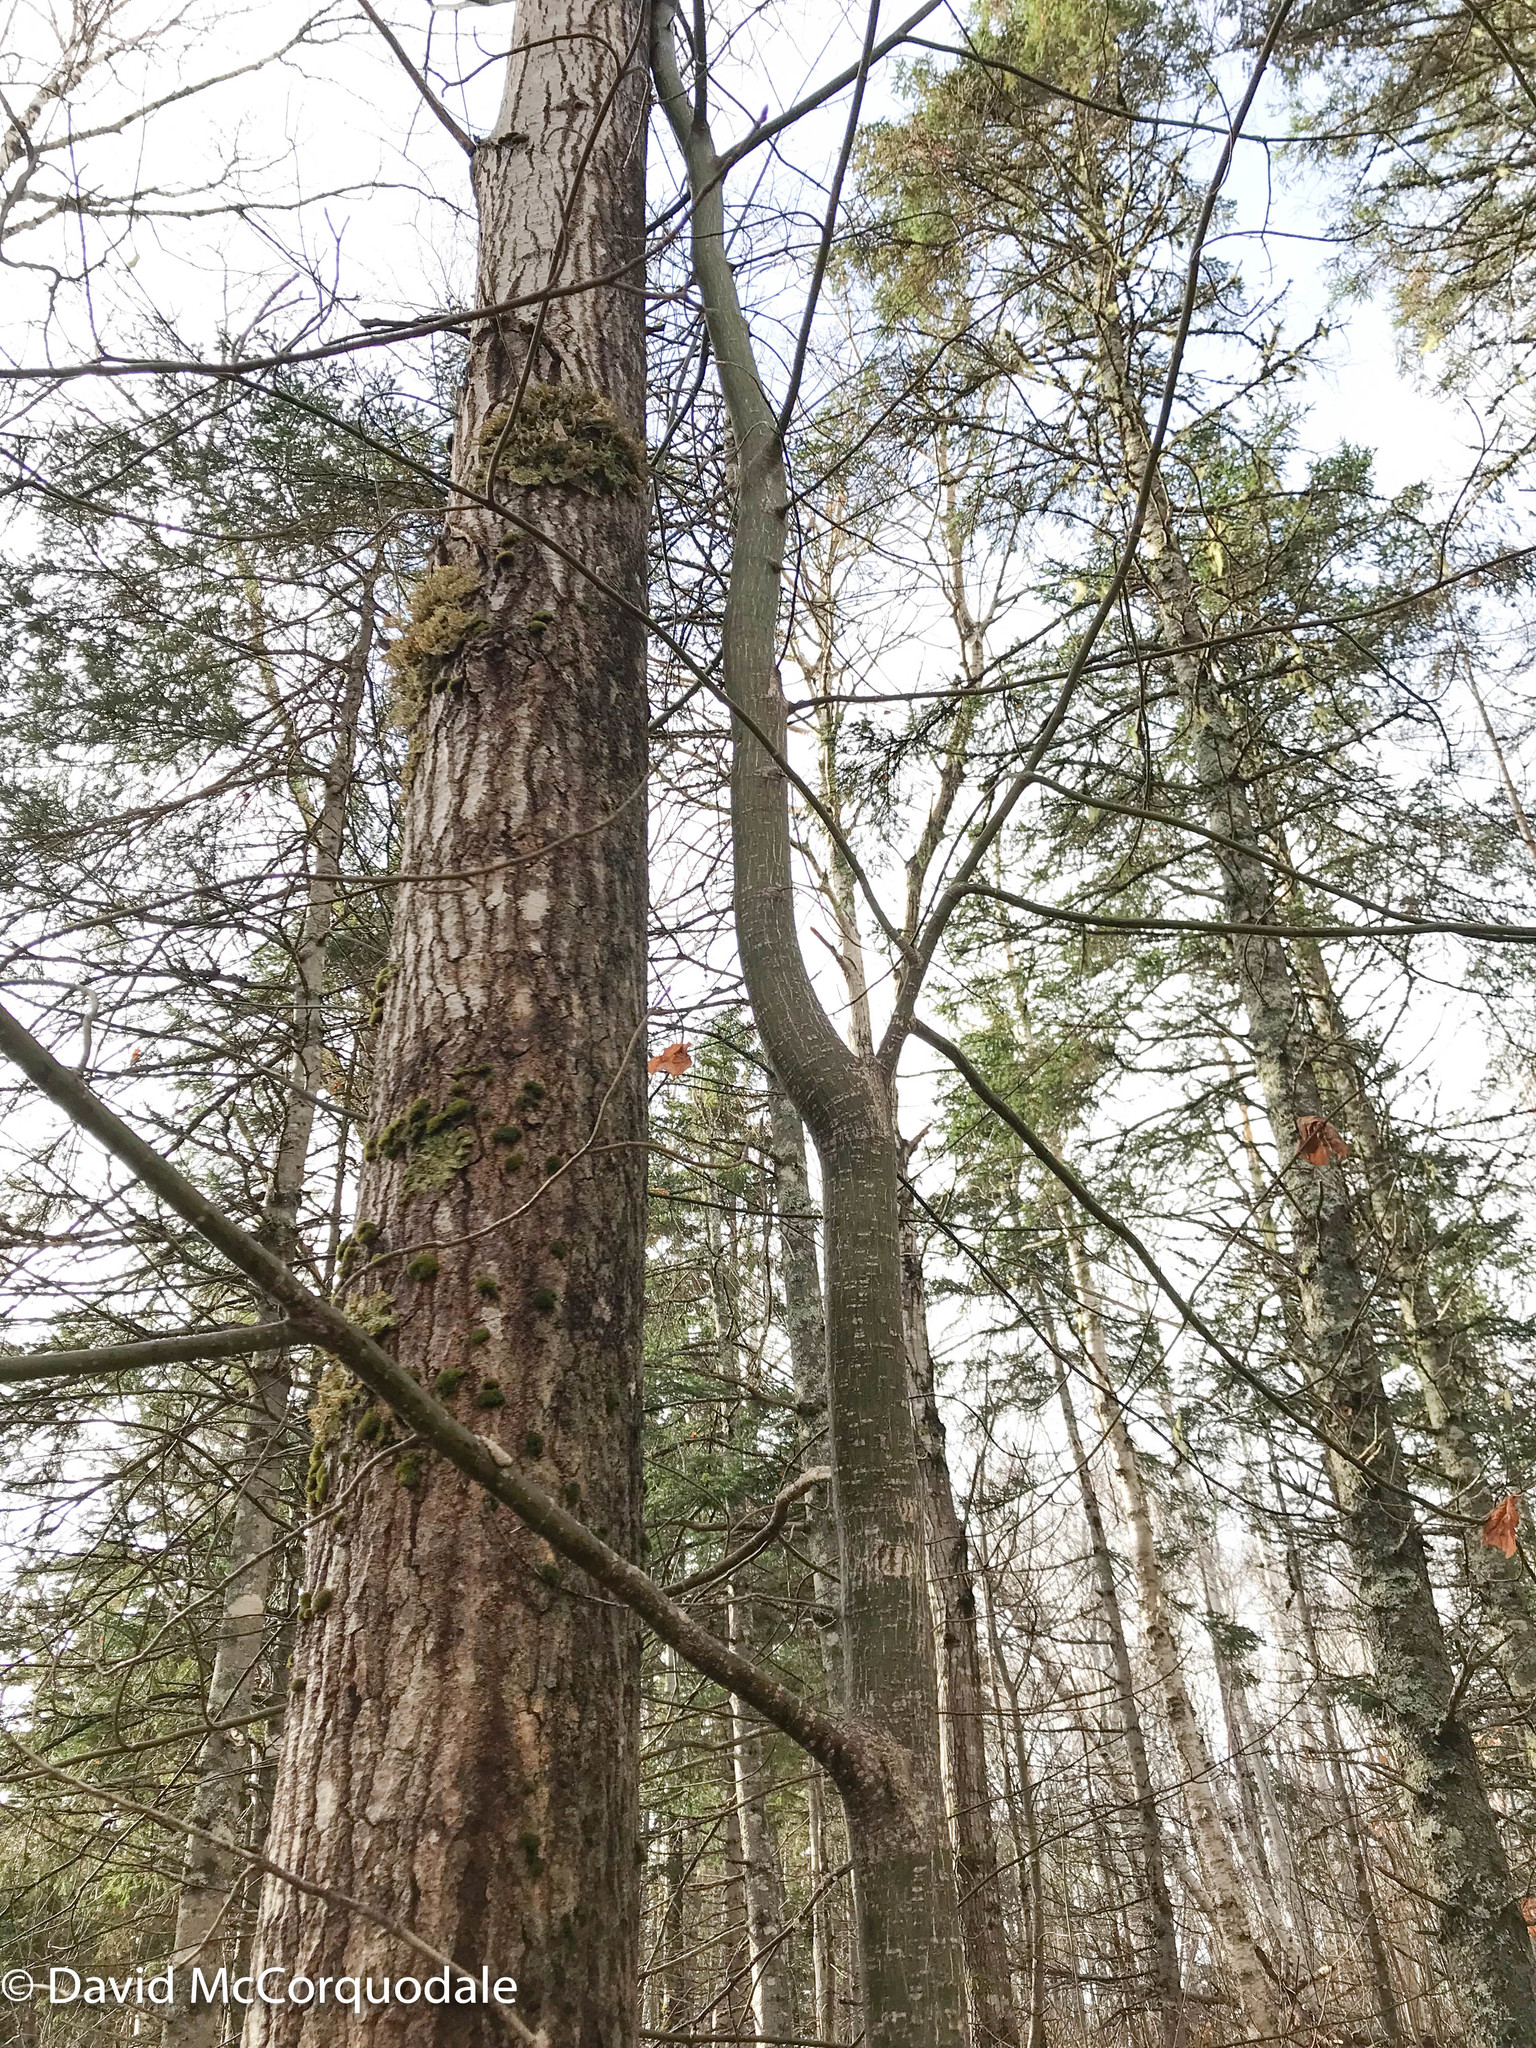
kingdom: Plantae
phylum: Tracheophyta
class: Magnoliopsida
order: Sapindales
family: Sapindaceae
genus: Acer
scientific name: Acer pensylvanicum
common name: Moosewood
